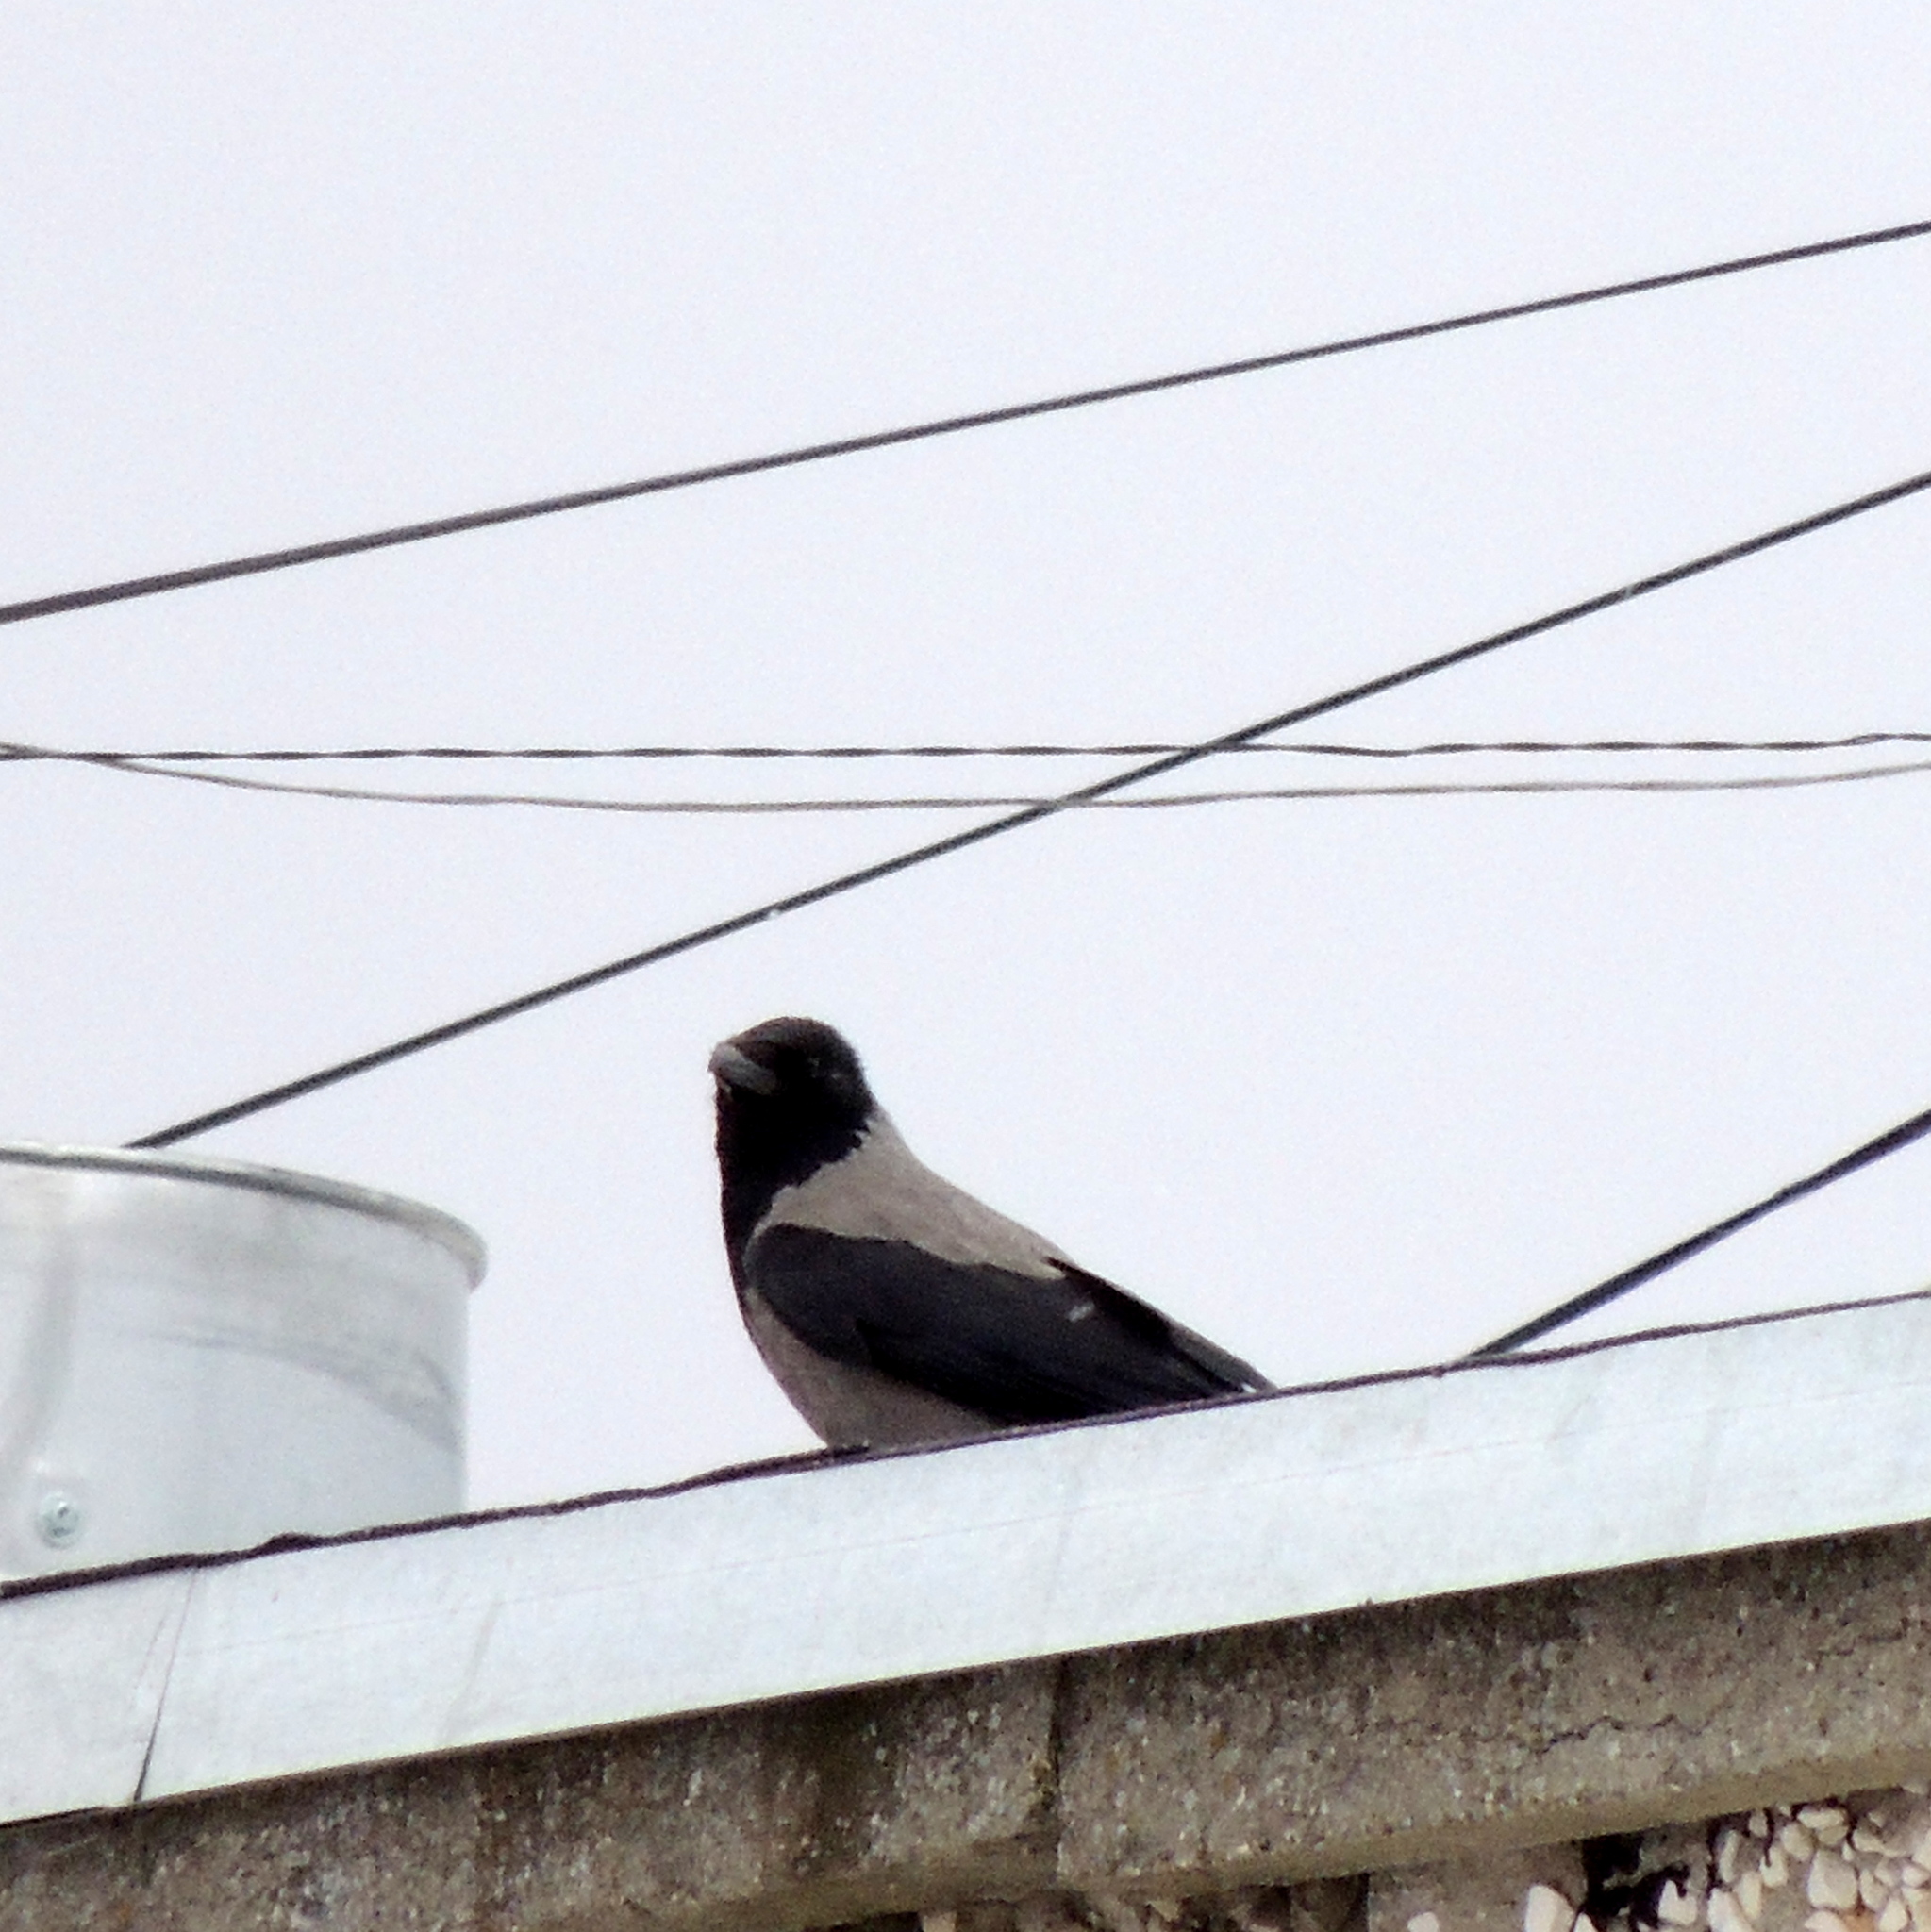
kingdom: Animalia
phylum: Chordata
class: Aves
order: Passeriformes
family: Corvidae
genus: Corvus
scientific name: Corvus cornix
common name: Hooded crow
